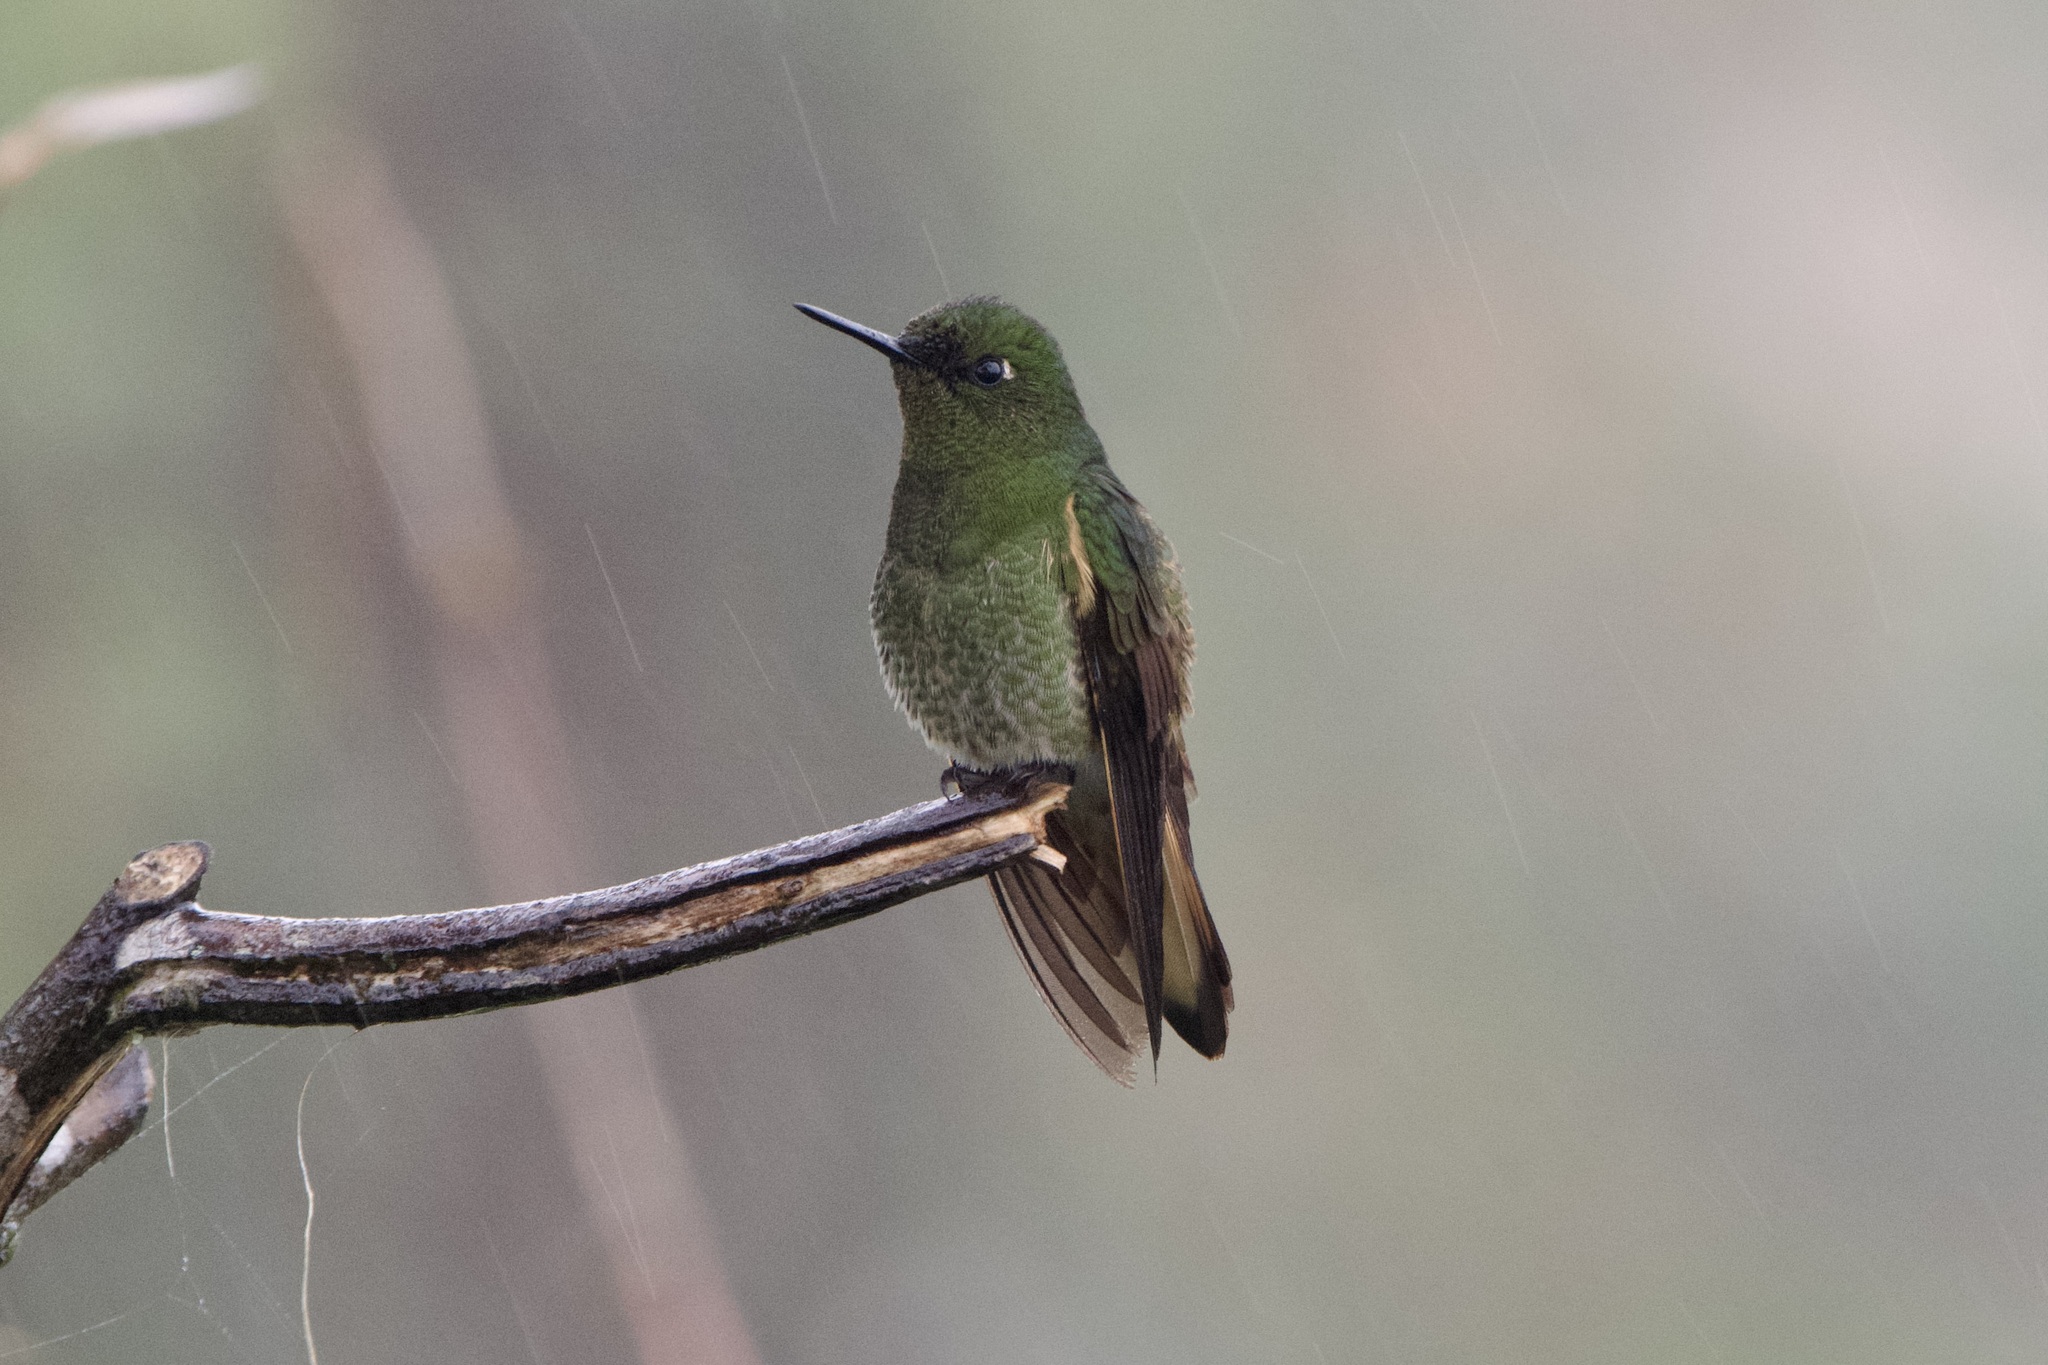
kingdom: Animalia
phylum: Chordata
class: Aves
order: Apodiformes
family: Trochilidae
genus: Boissonneaua
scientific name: Boissonneaua flavescens
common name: Buff-tailed coronet
